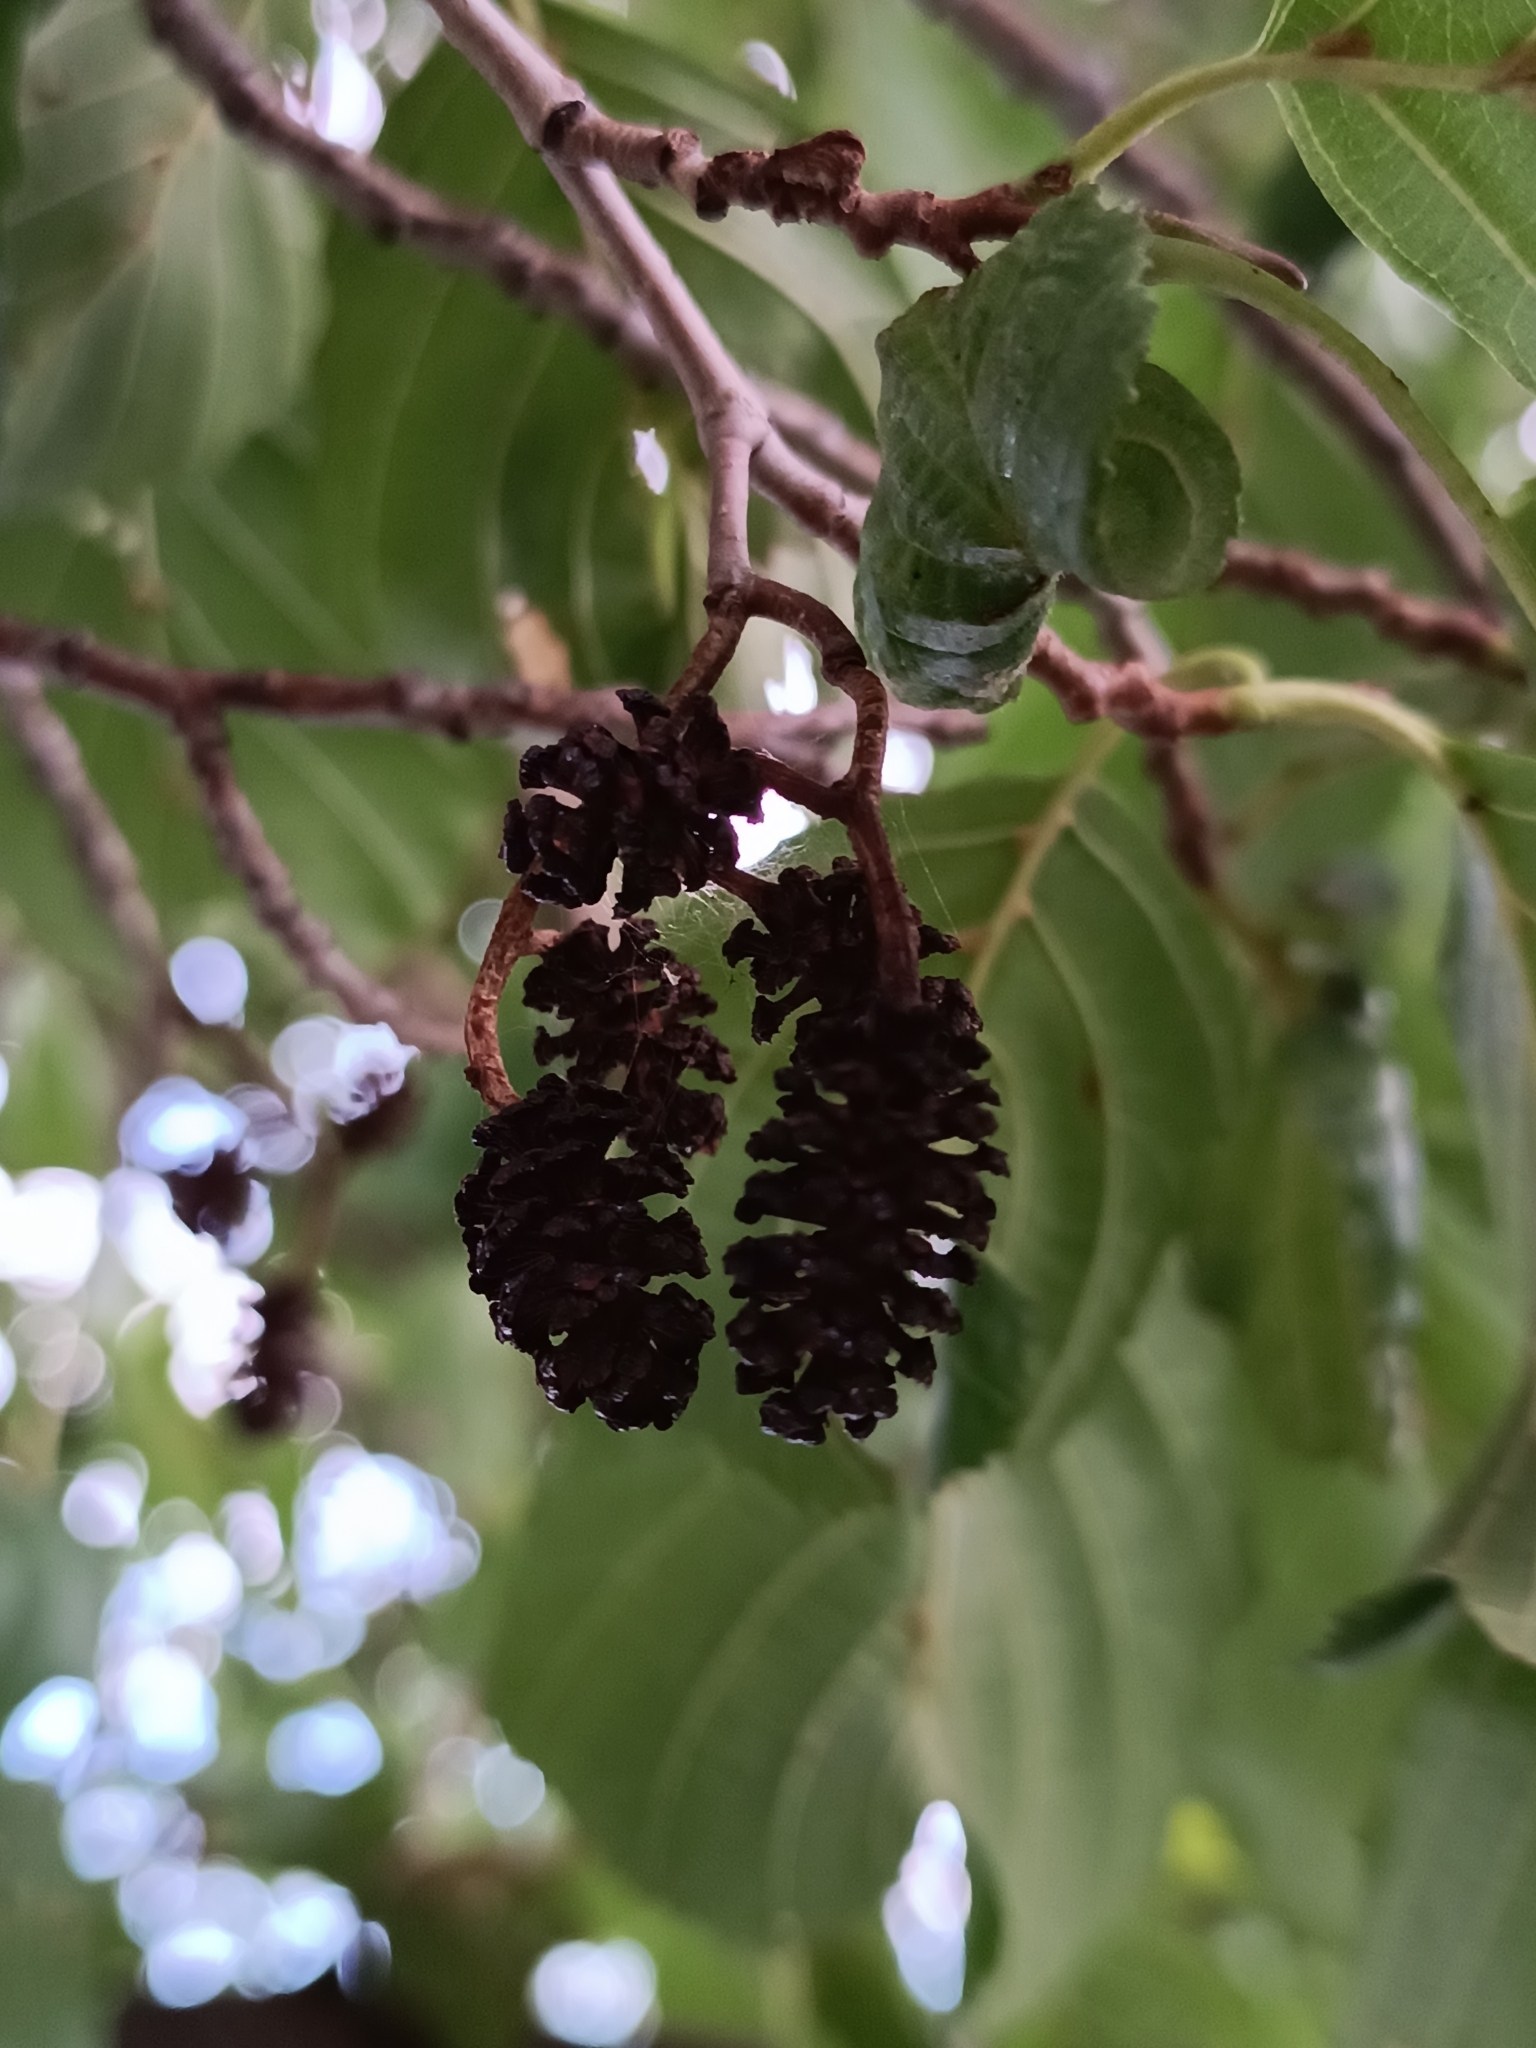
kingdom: Plantae
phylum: Tracheophyta
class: Magnoliopsida
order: Fagales
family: Betulaceae
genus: Alnus
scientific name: Alnus glutinosa
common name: Black alder
